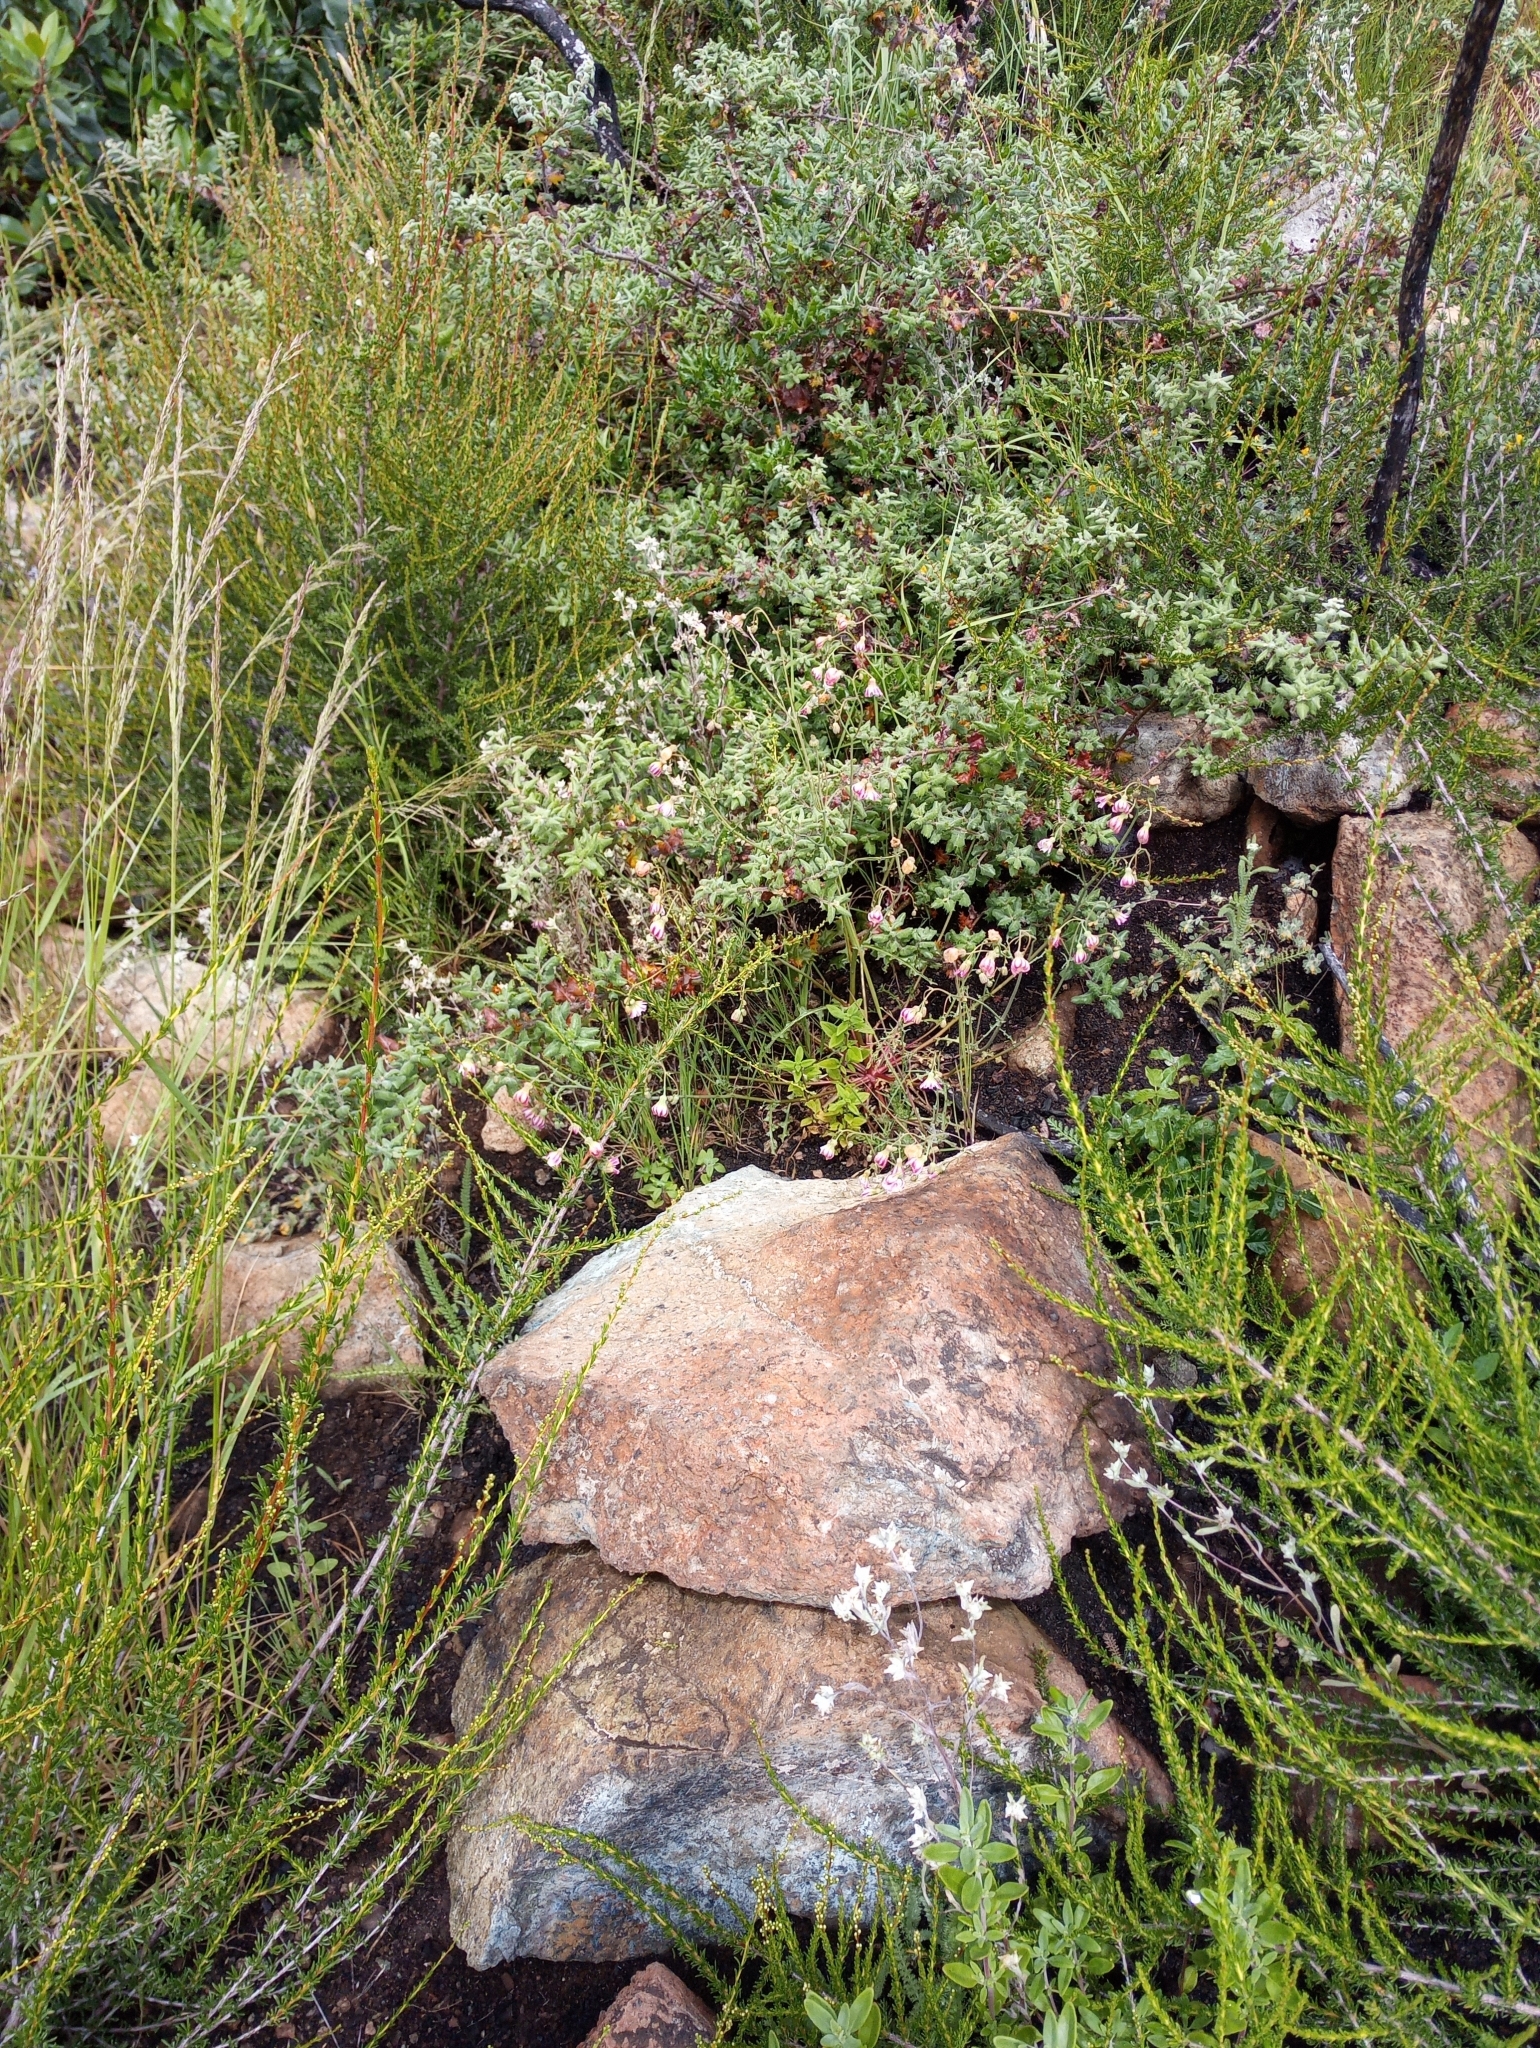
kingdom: Plantae
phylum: Tracheophyta
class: Magnoliopsida
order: Asterales
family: Asteraceae
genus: Malacothrix
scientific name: Malacothrix floccifera
